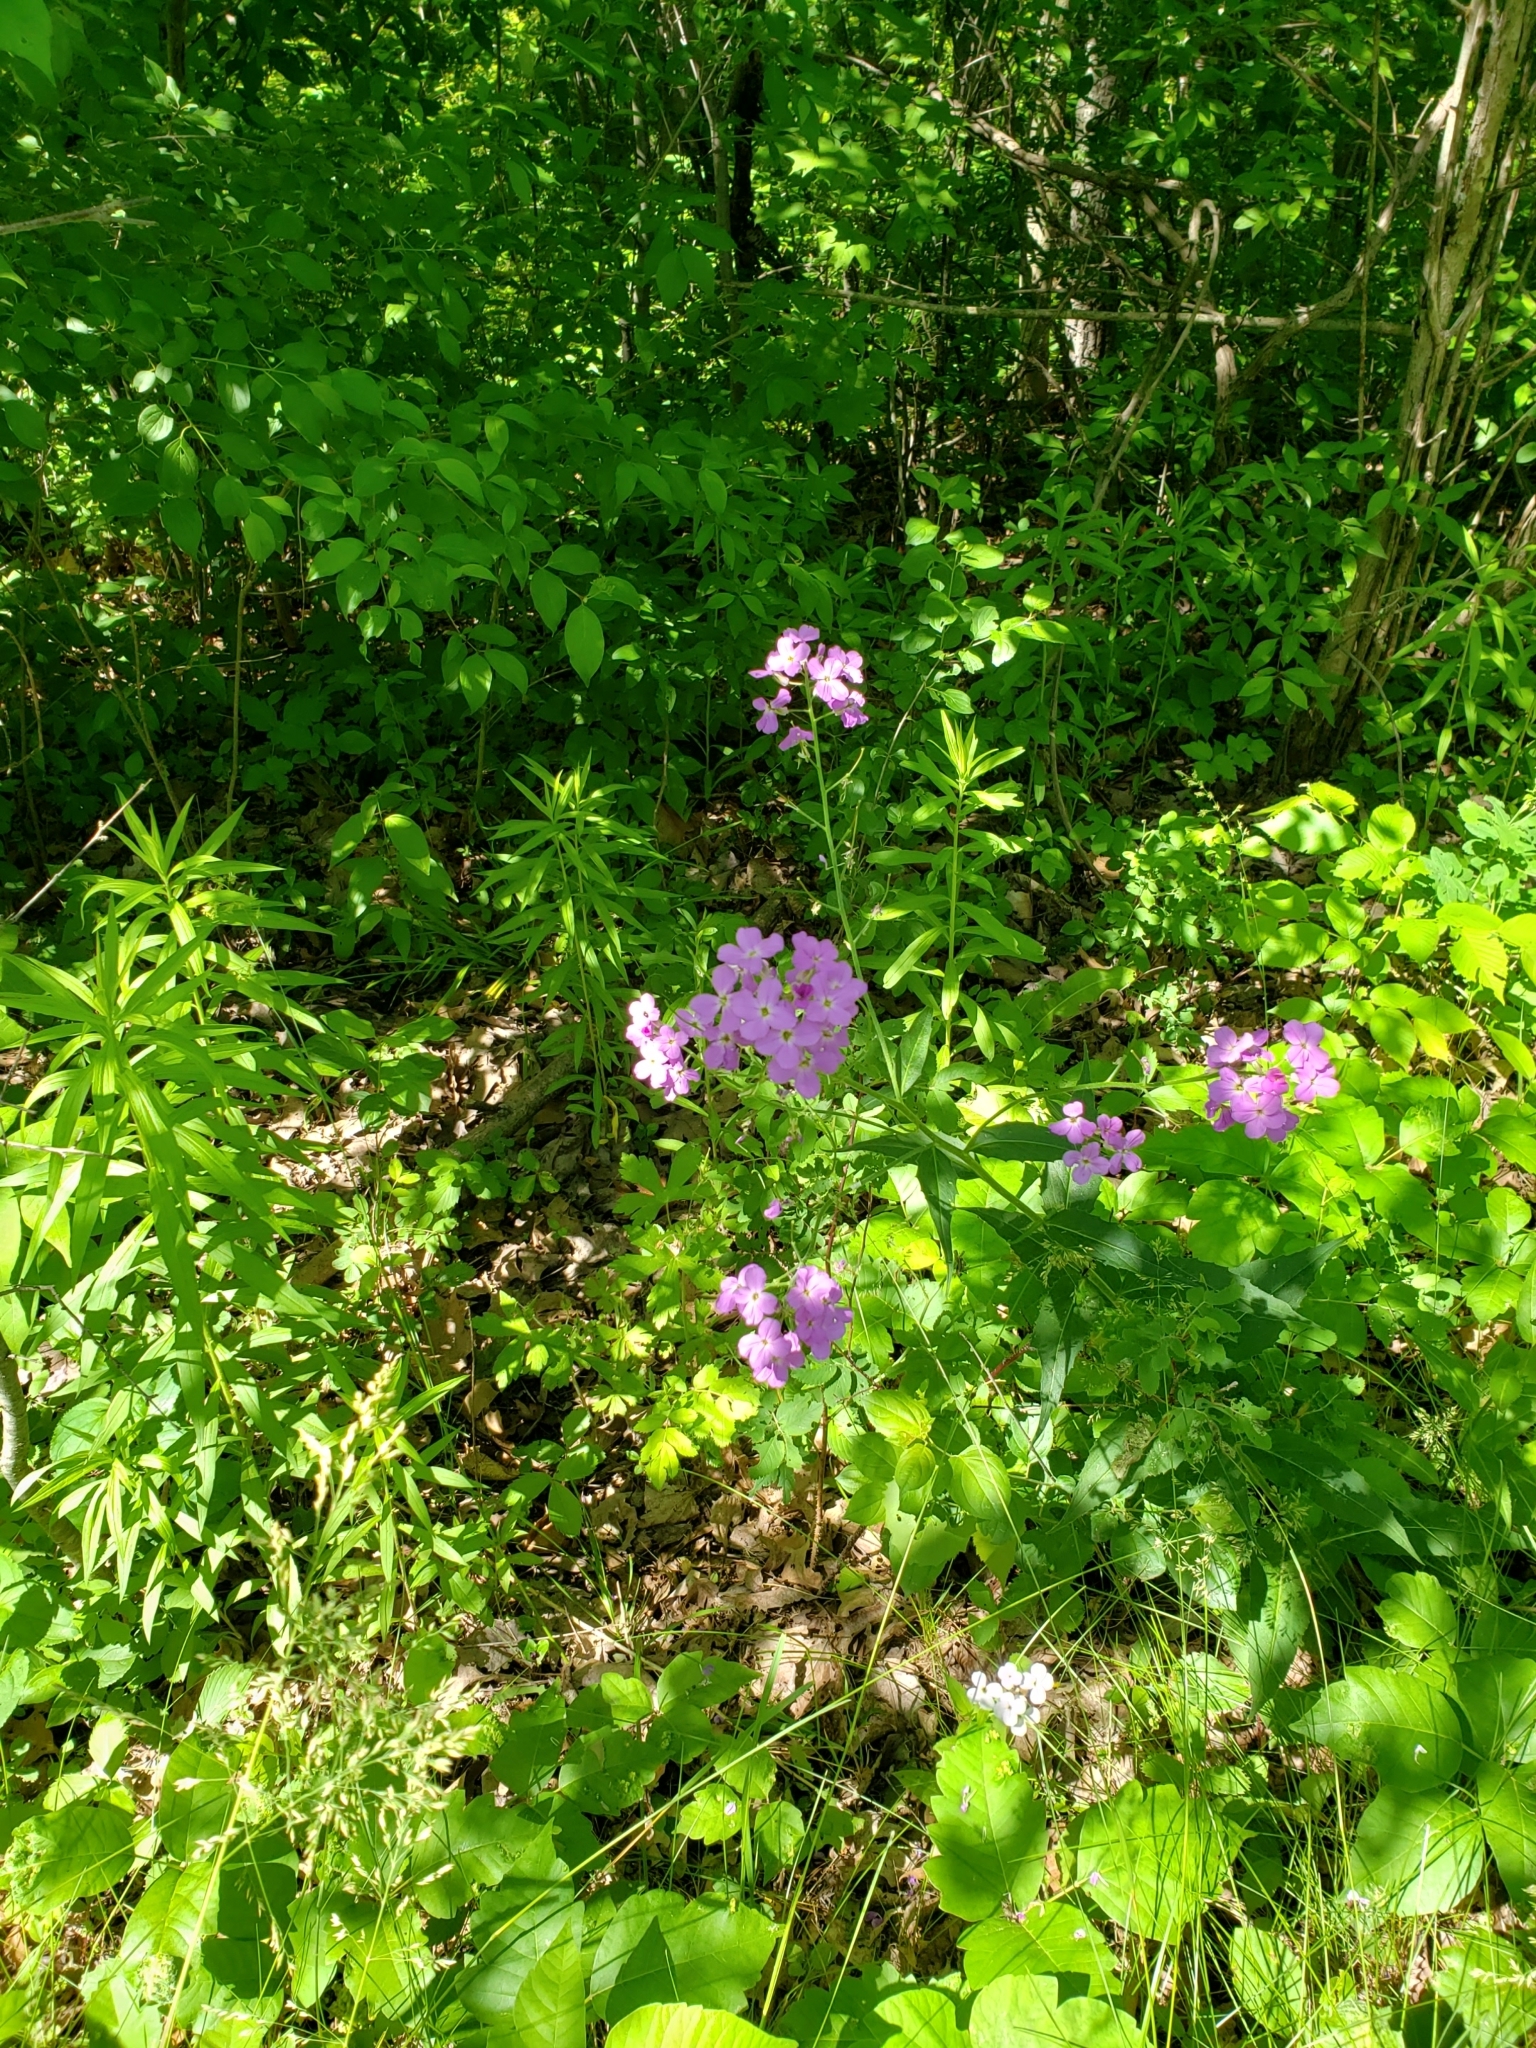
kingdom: Plantae
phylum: Tracheophyta
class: Magnoliopsida
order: Brassicales
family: Brassicaceae
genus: Hesperis
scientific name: Hesperis matronalis
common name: Dame's-violet
